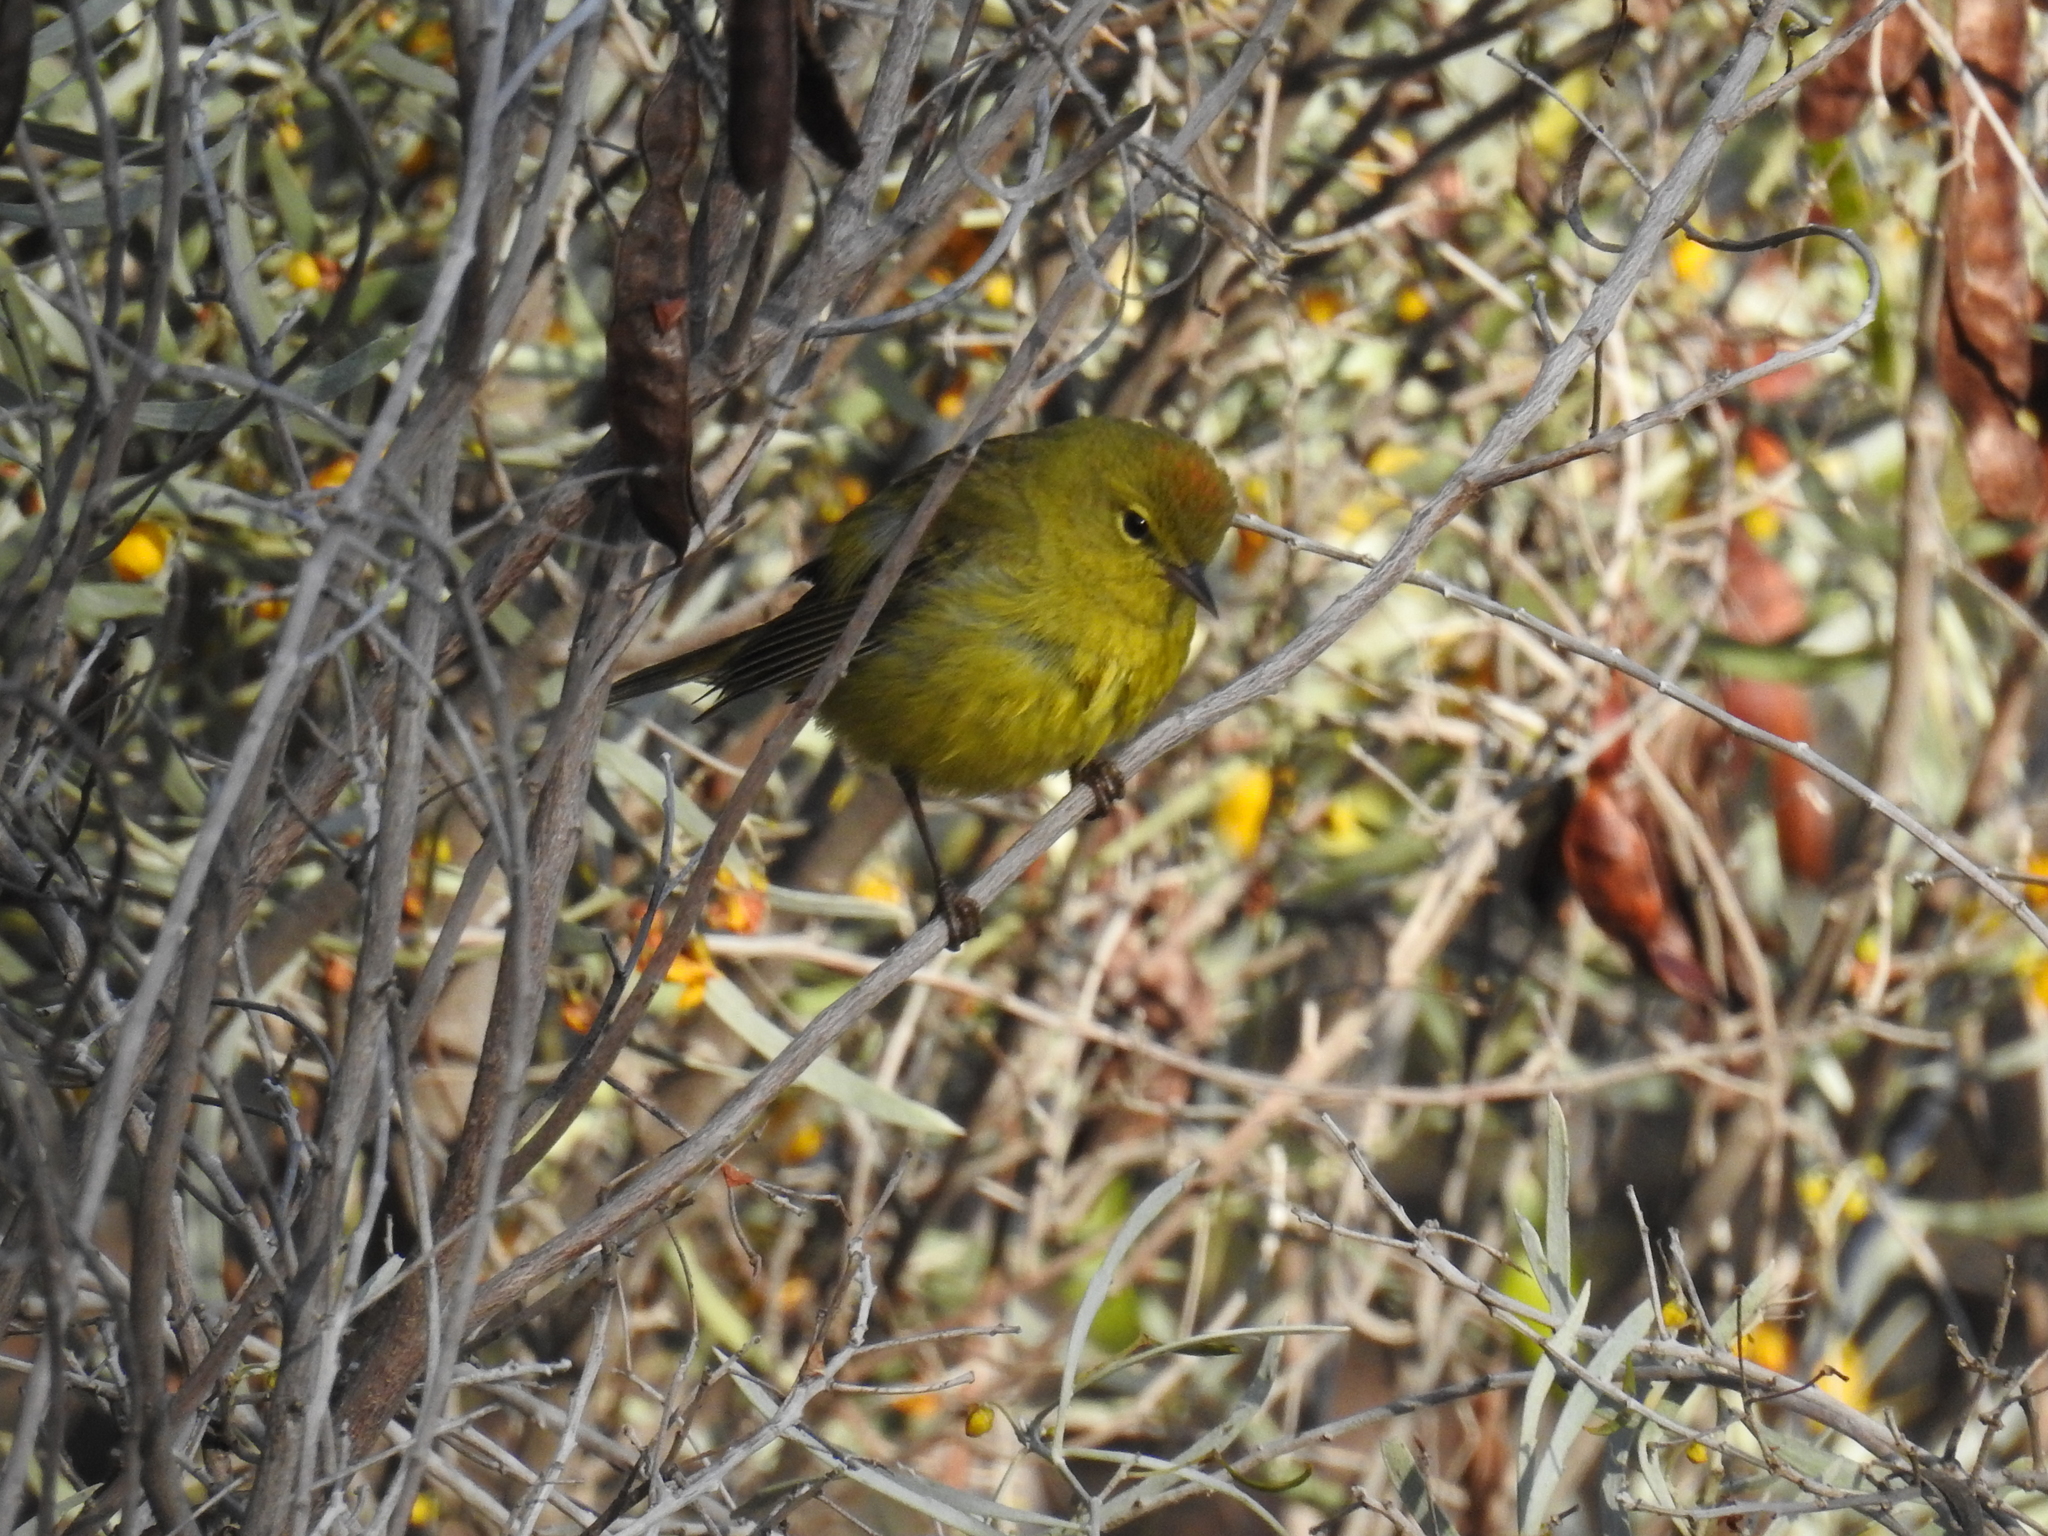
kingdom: Animalia
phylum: Chordata
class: Aves
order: Passeriformes
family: Parulidae
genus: Leiothlypis
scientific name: Leiothlypis celata
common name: Orange-crowned warbler
